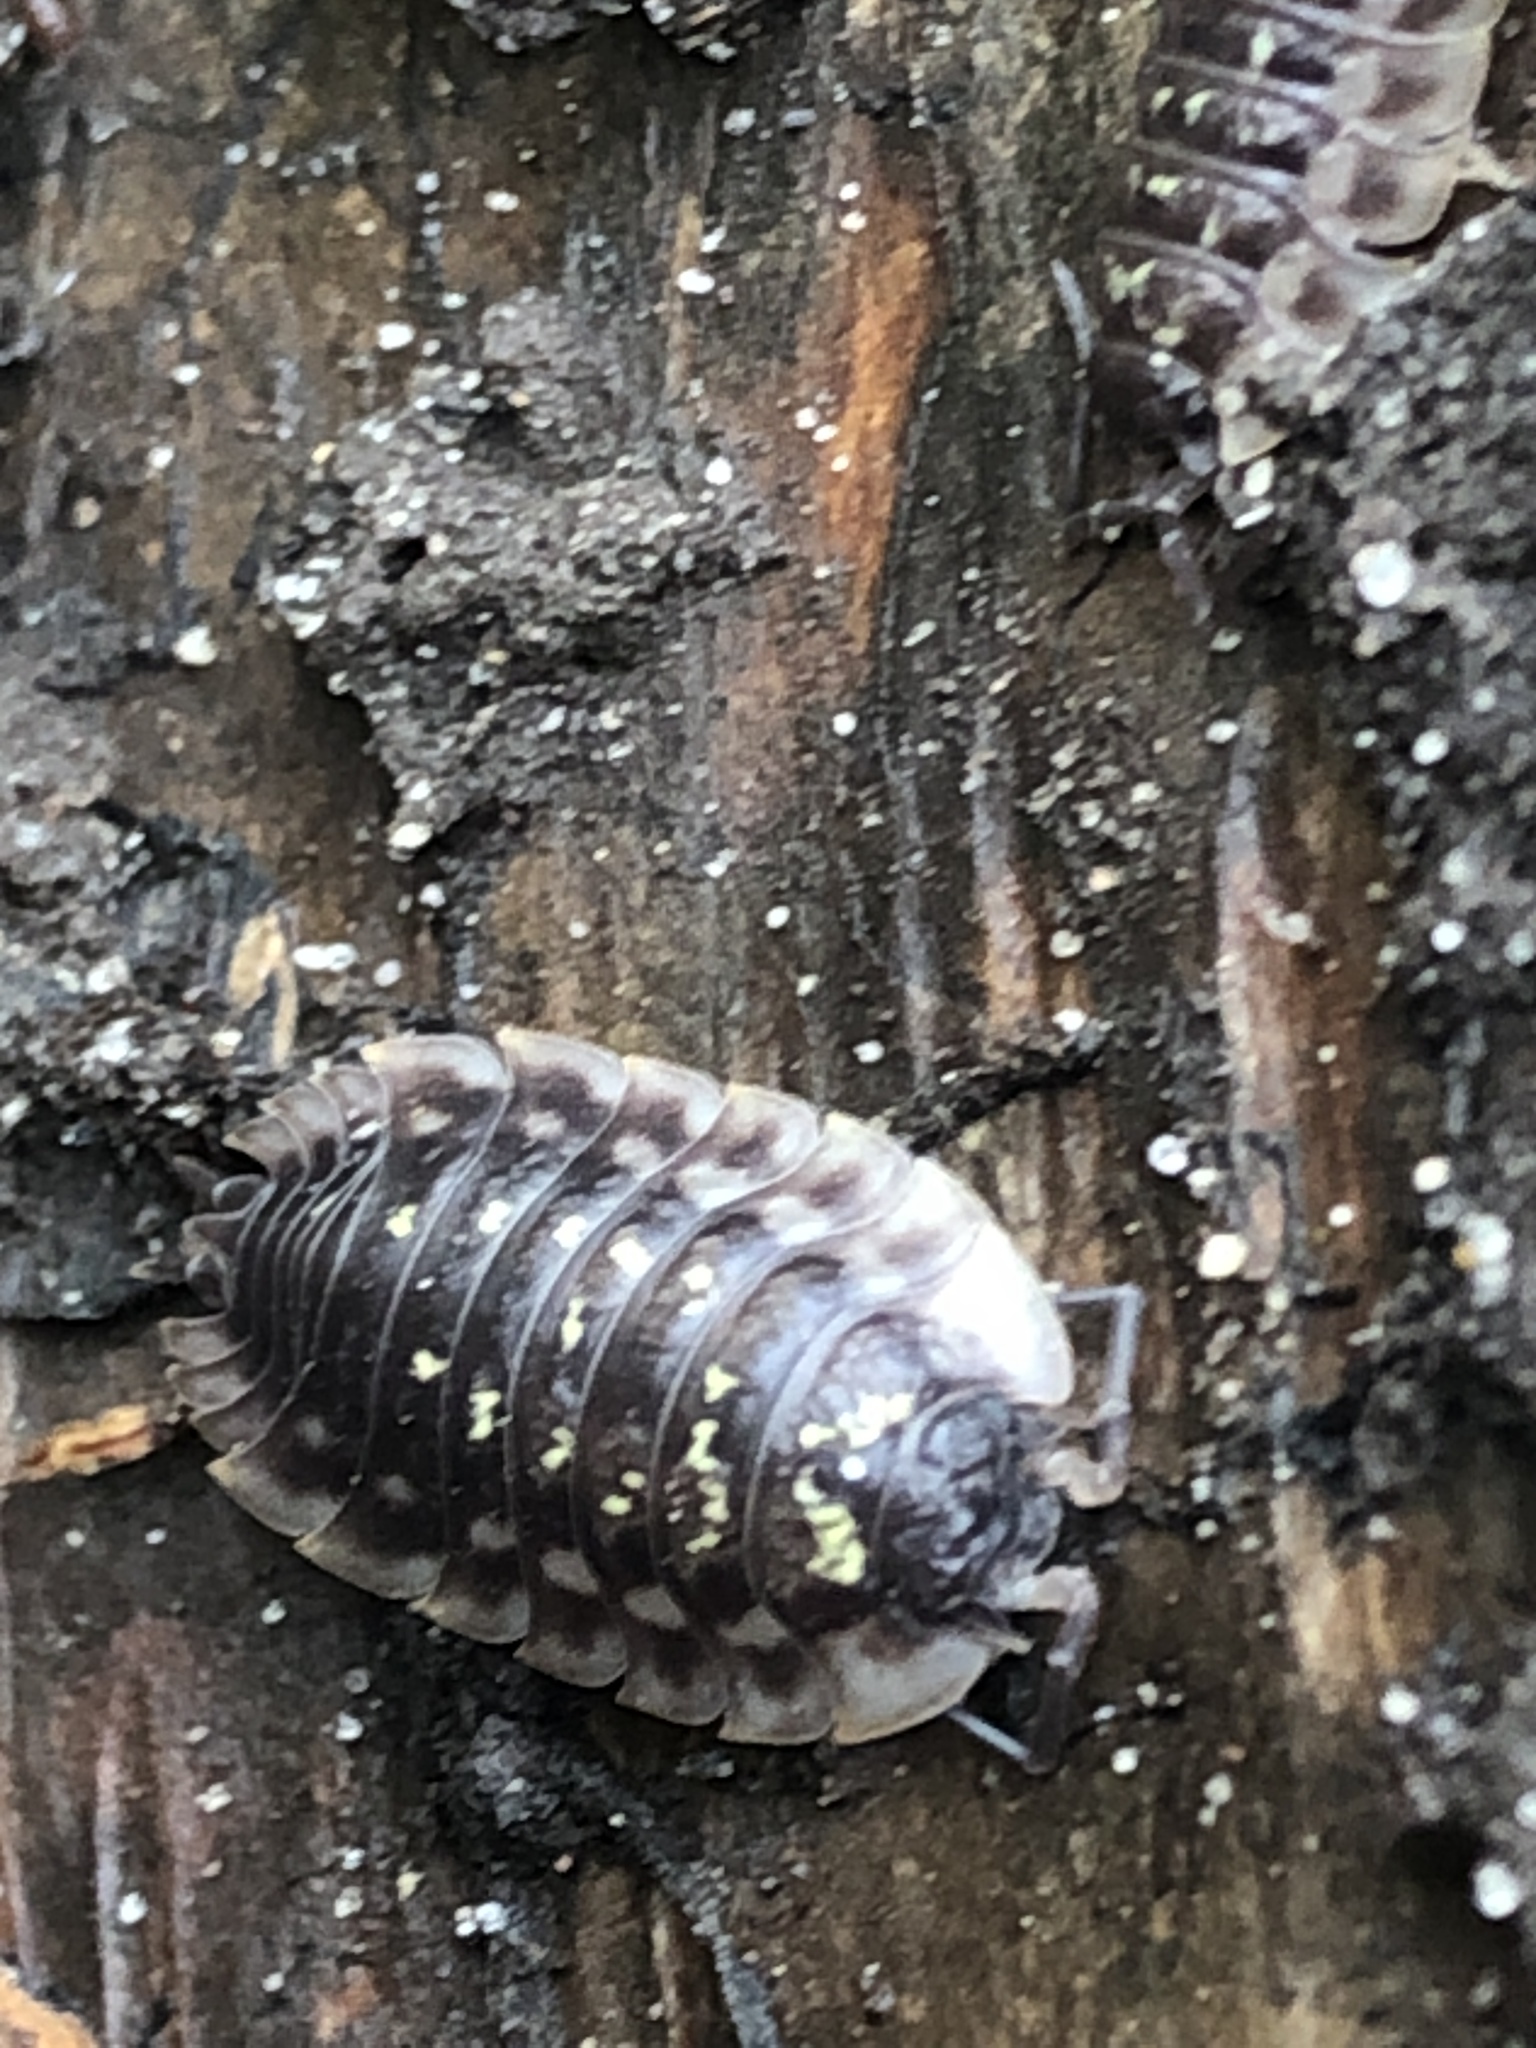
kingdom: Animalia
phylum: Arthropoda
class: Malacostraca
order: Isopoda
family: Oniscidae
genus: Oniscus
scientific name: Oniscus asellus
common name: Common shiny woodlouse
